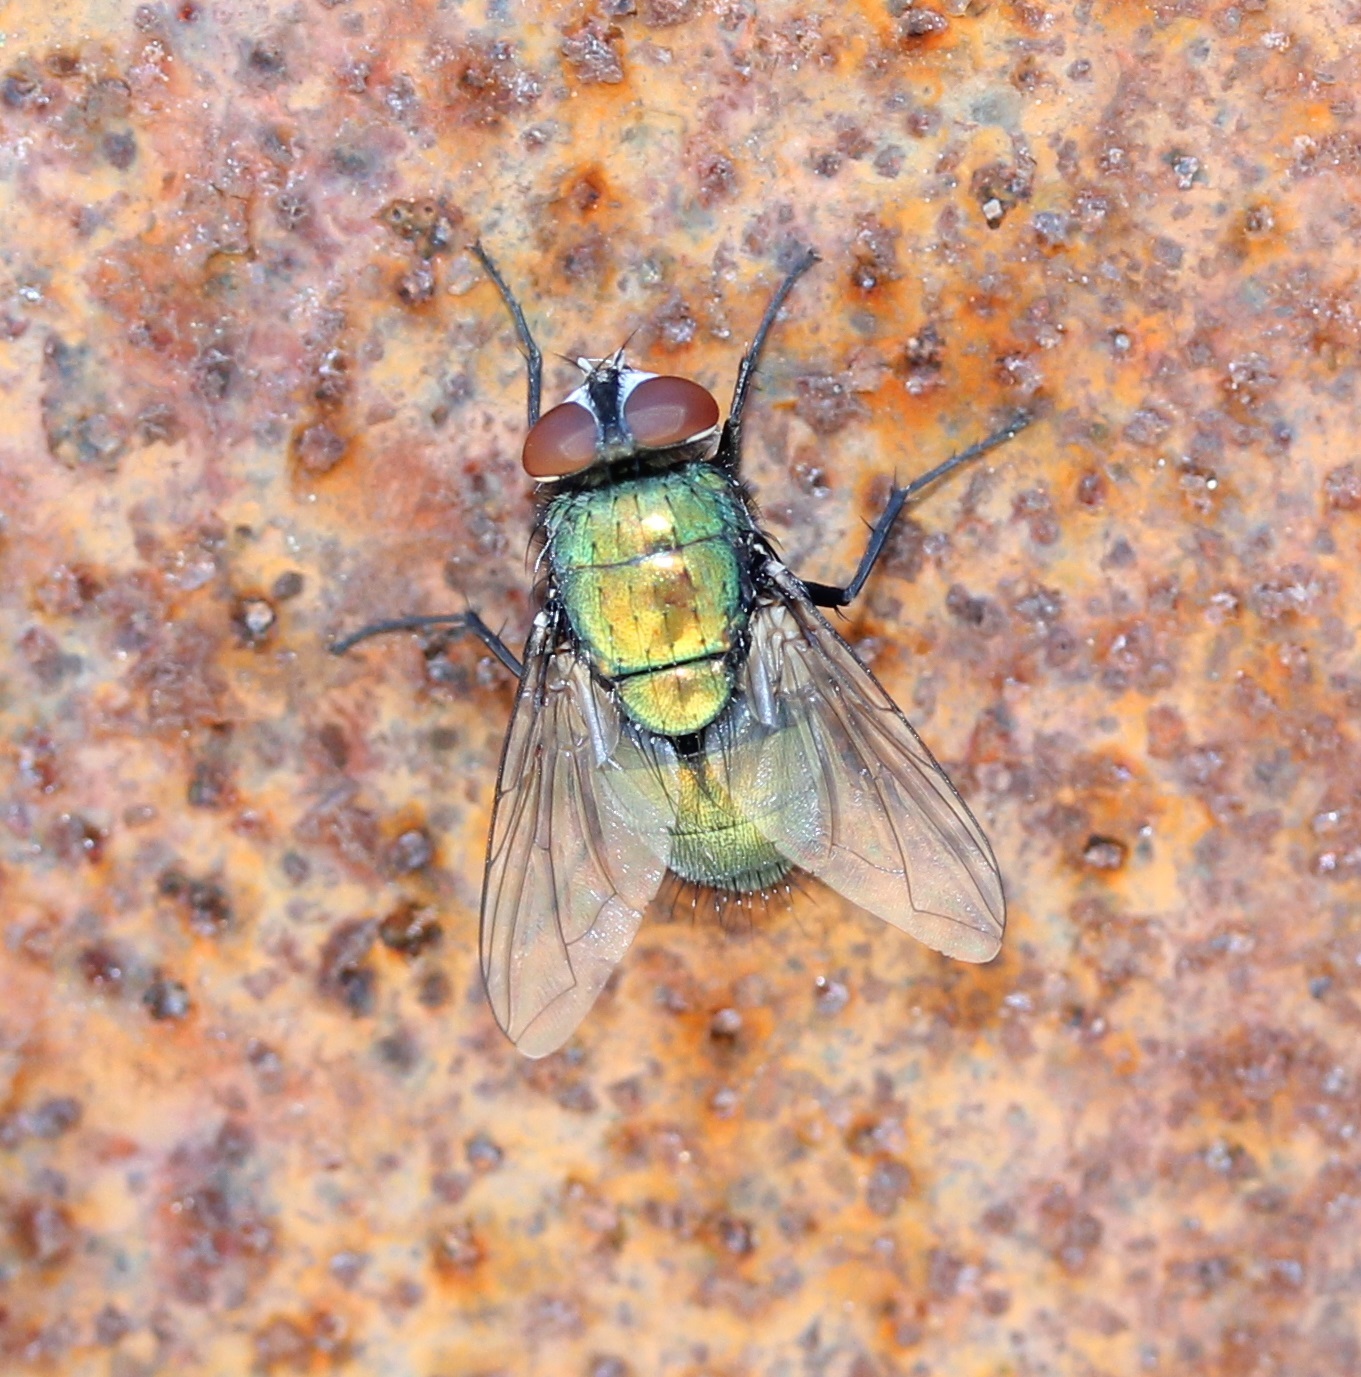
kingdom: Animalia
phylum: Arthropoda
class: Insecta
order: Diptera
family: Calliphoridae
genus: Lucilia
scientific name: Lucilia sericata
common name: Blow fly
